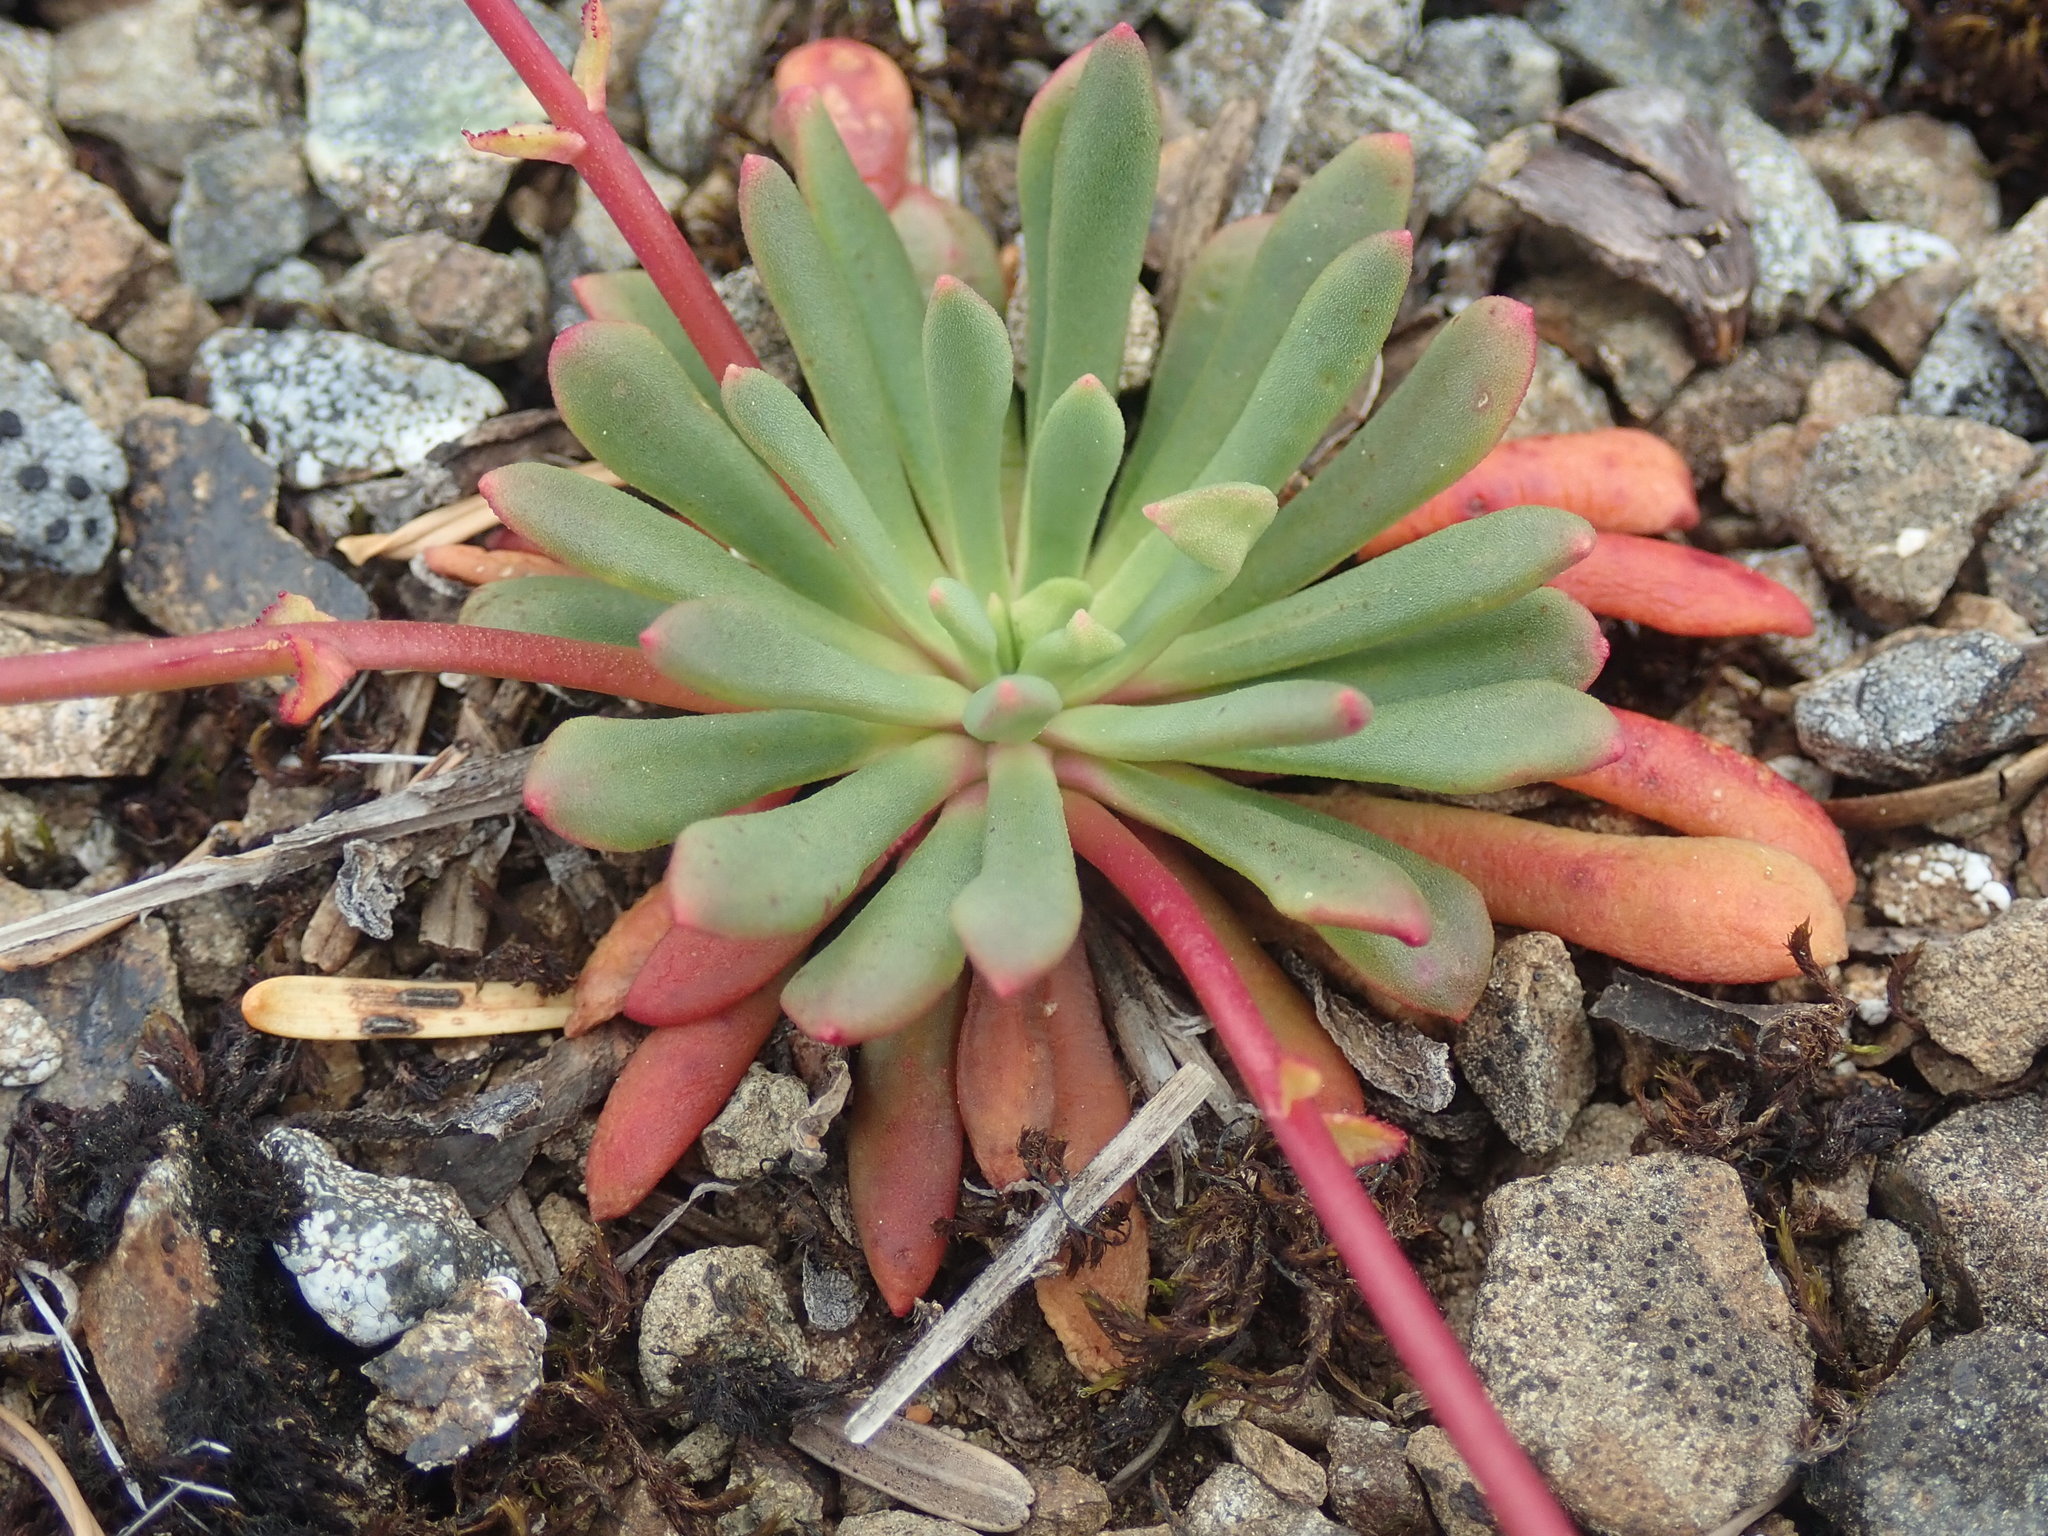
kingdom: Plantae
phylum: Tracheophyta
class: Magnoliopsida
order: Caryophyllales
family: Montiaceae
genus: Lewisia
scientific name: Lewisia columbiana
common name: Columbia lewisia
